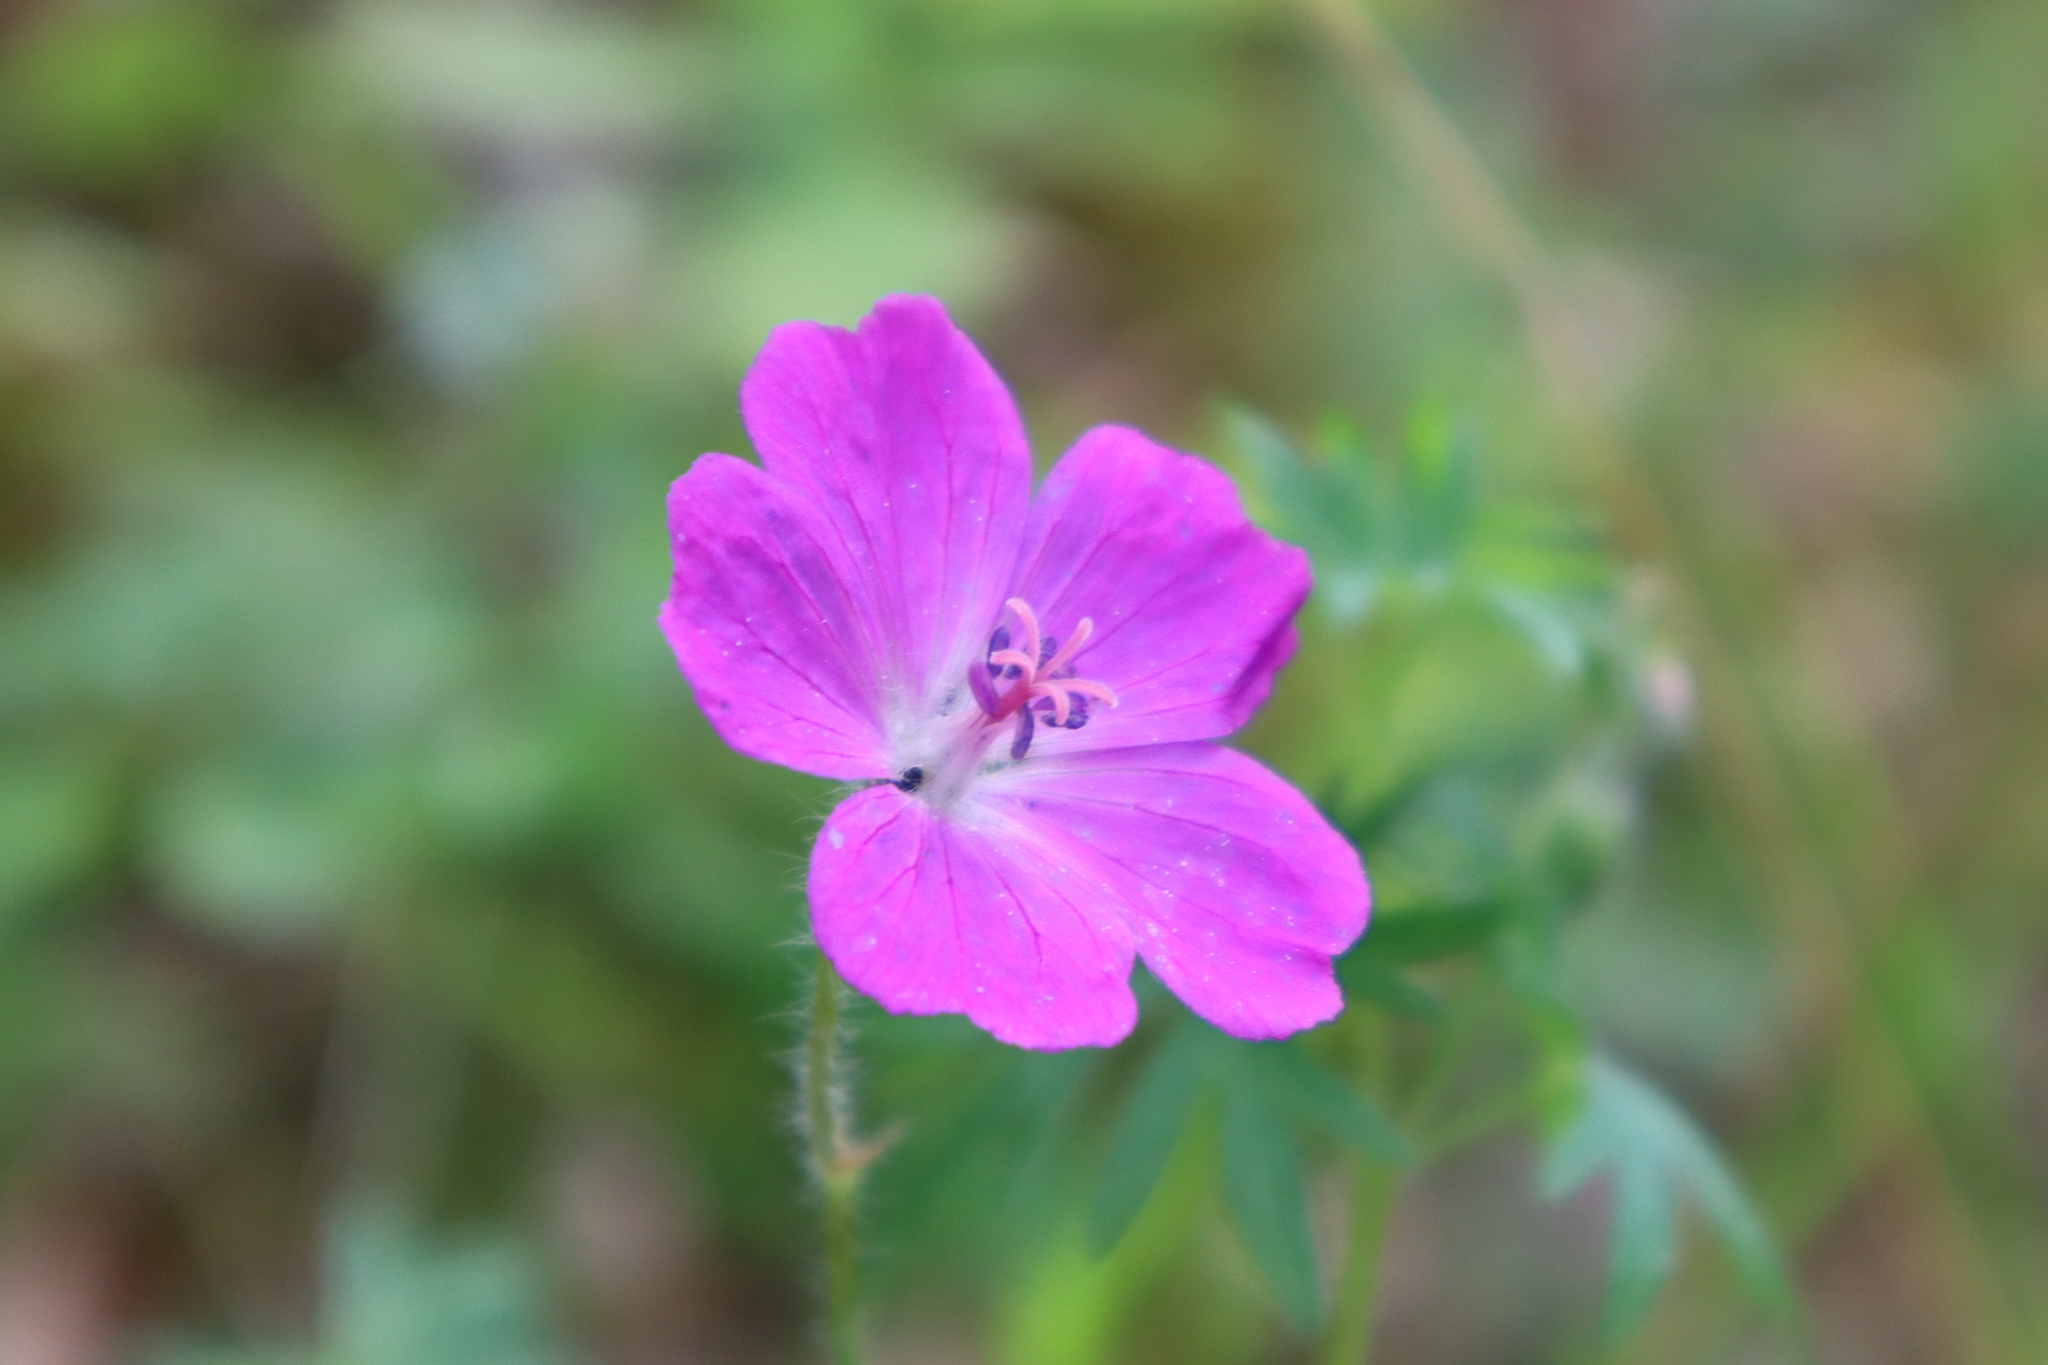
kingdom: Plantae
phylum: Tracheophyta
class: Magnoliopsida
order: Geraniales
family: Geraniaceae
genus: Geranium
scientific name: Geranium sanguineum
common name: Bloody crane's-bill
